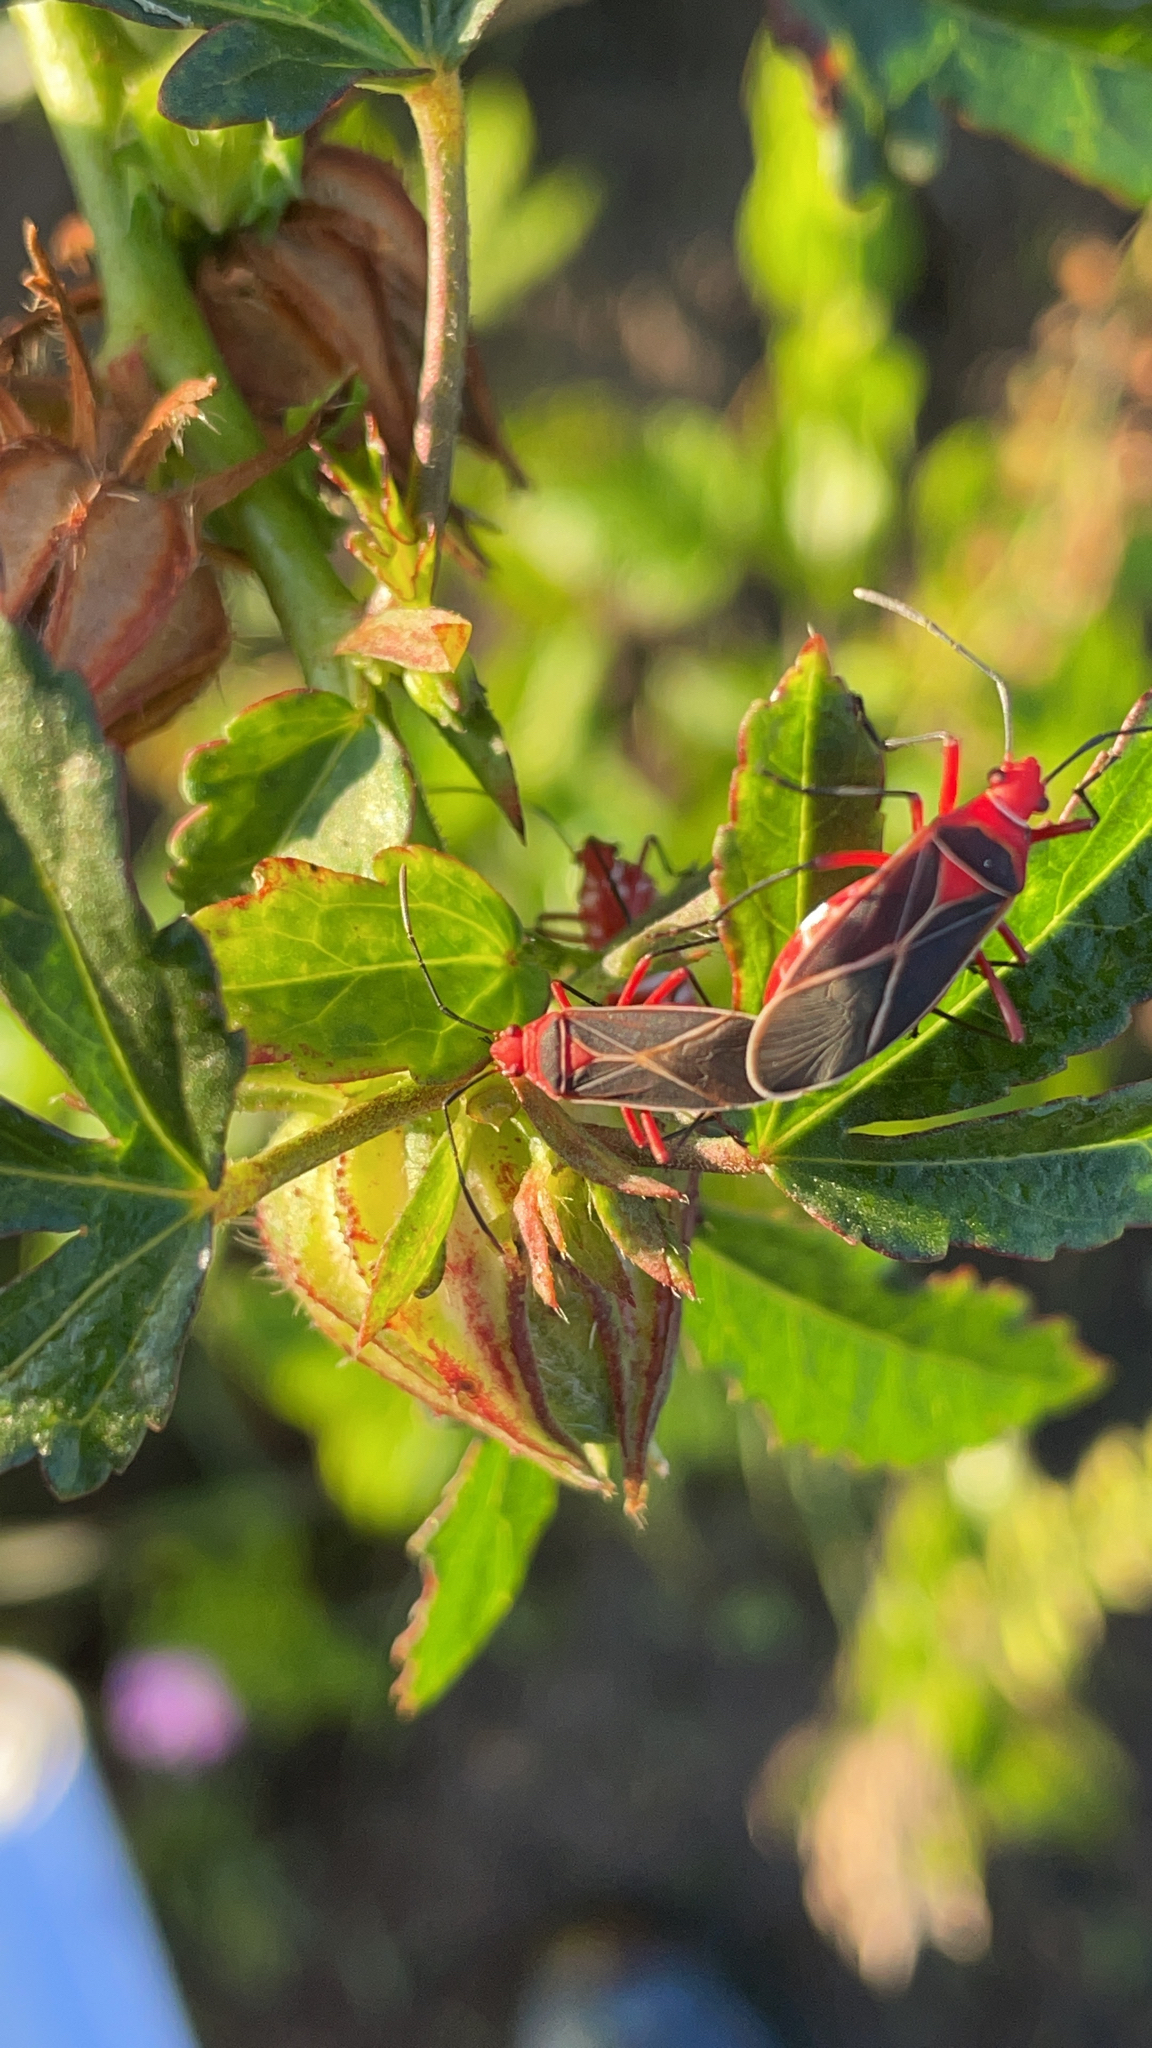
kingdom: Animalia
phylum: Arthropoda
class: Insecta
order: Hemiptera
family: Pyrrhocoridae
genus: Dysdercus
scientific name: Dysdercus suturellus
